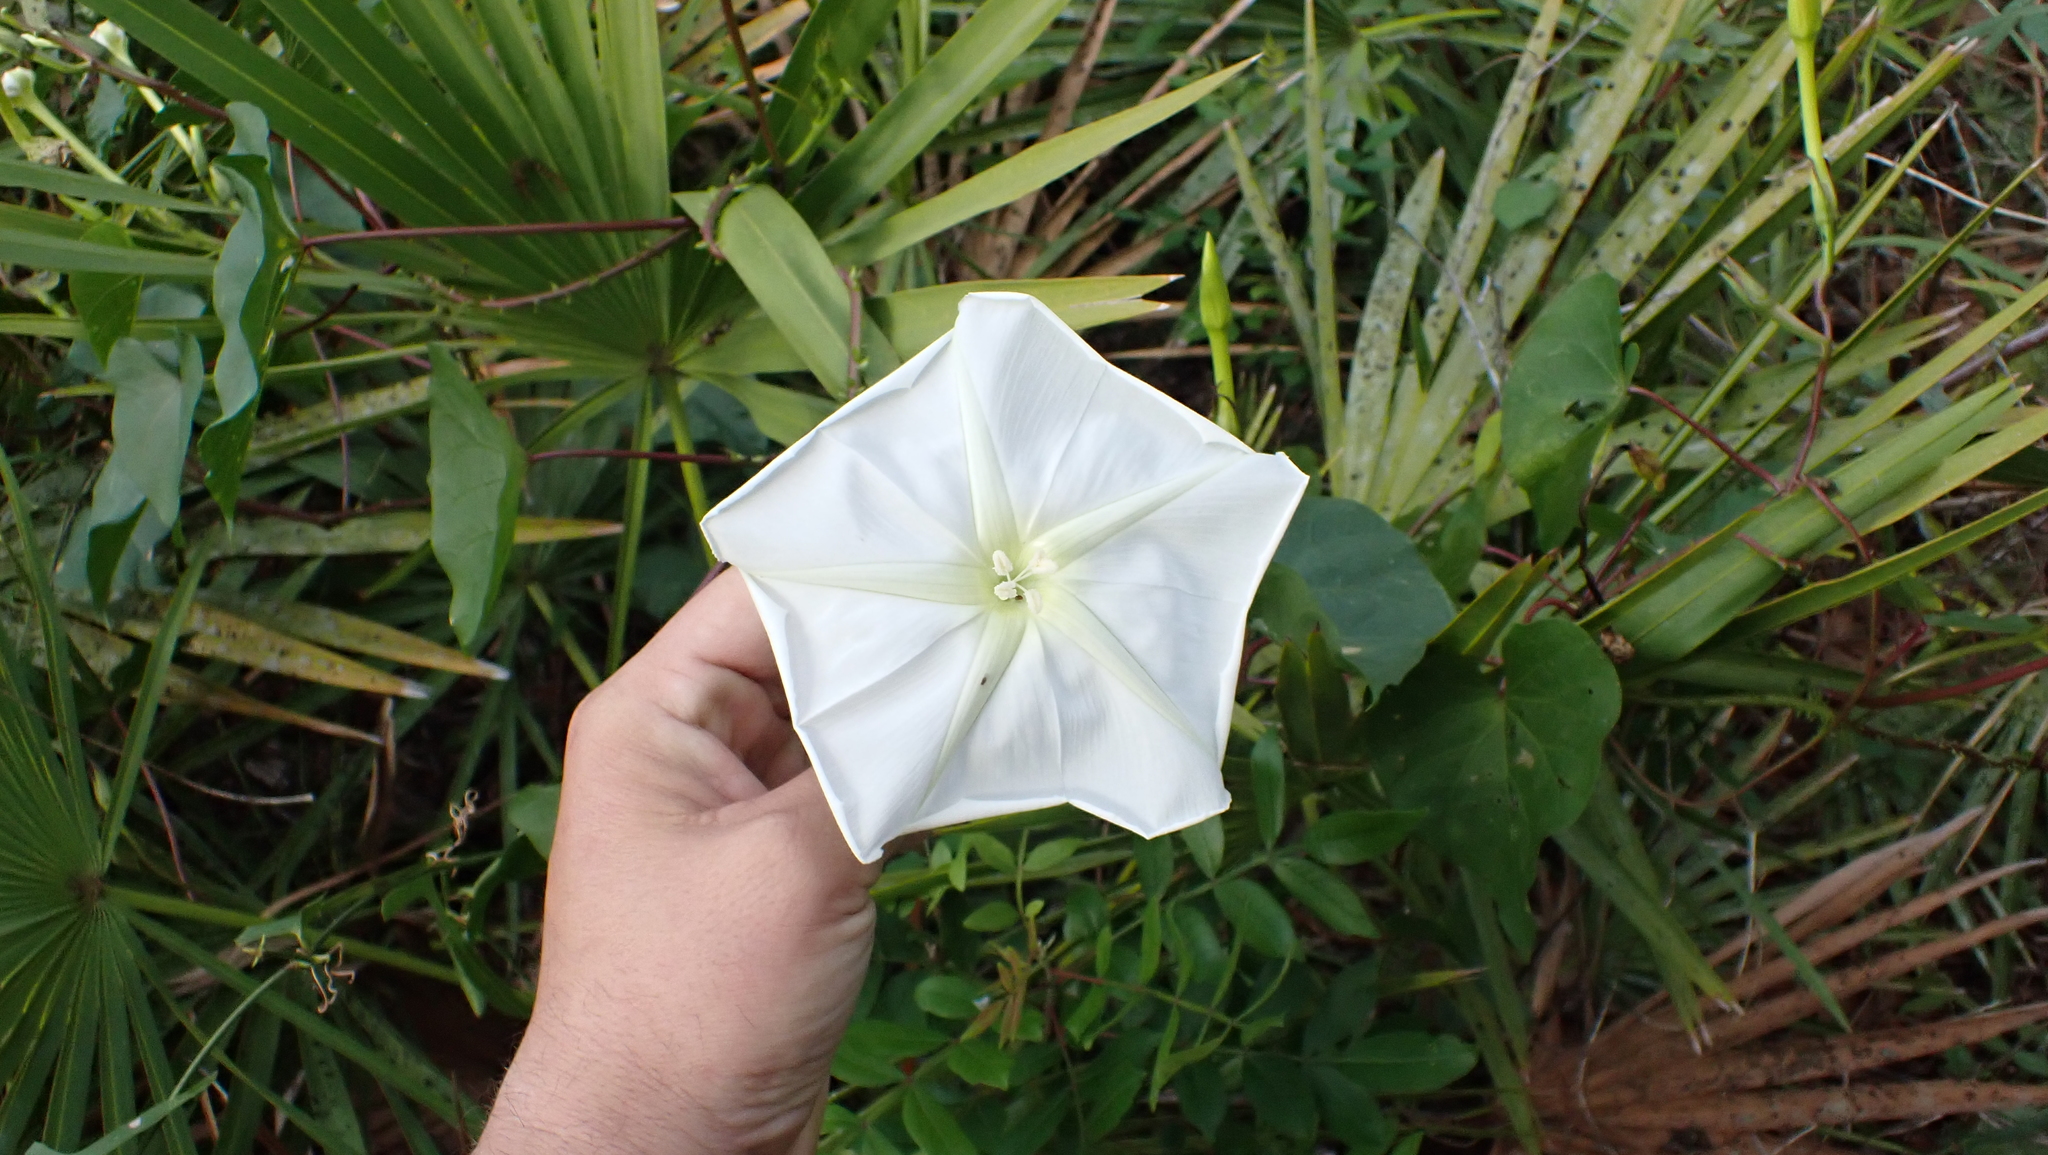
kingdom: Plantae
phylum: Tracheophyta
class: Magnoliopsida
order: Solanales
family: Convolvulaceae
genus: Ipomoea
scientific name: Ipomoea alba
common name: Moonflower
